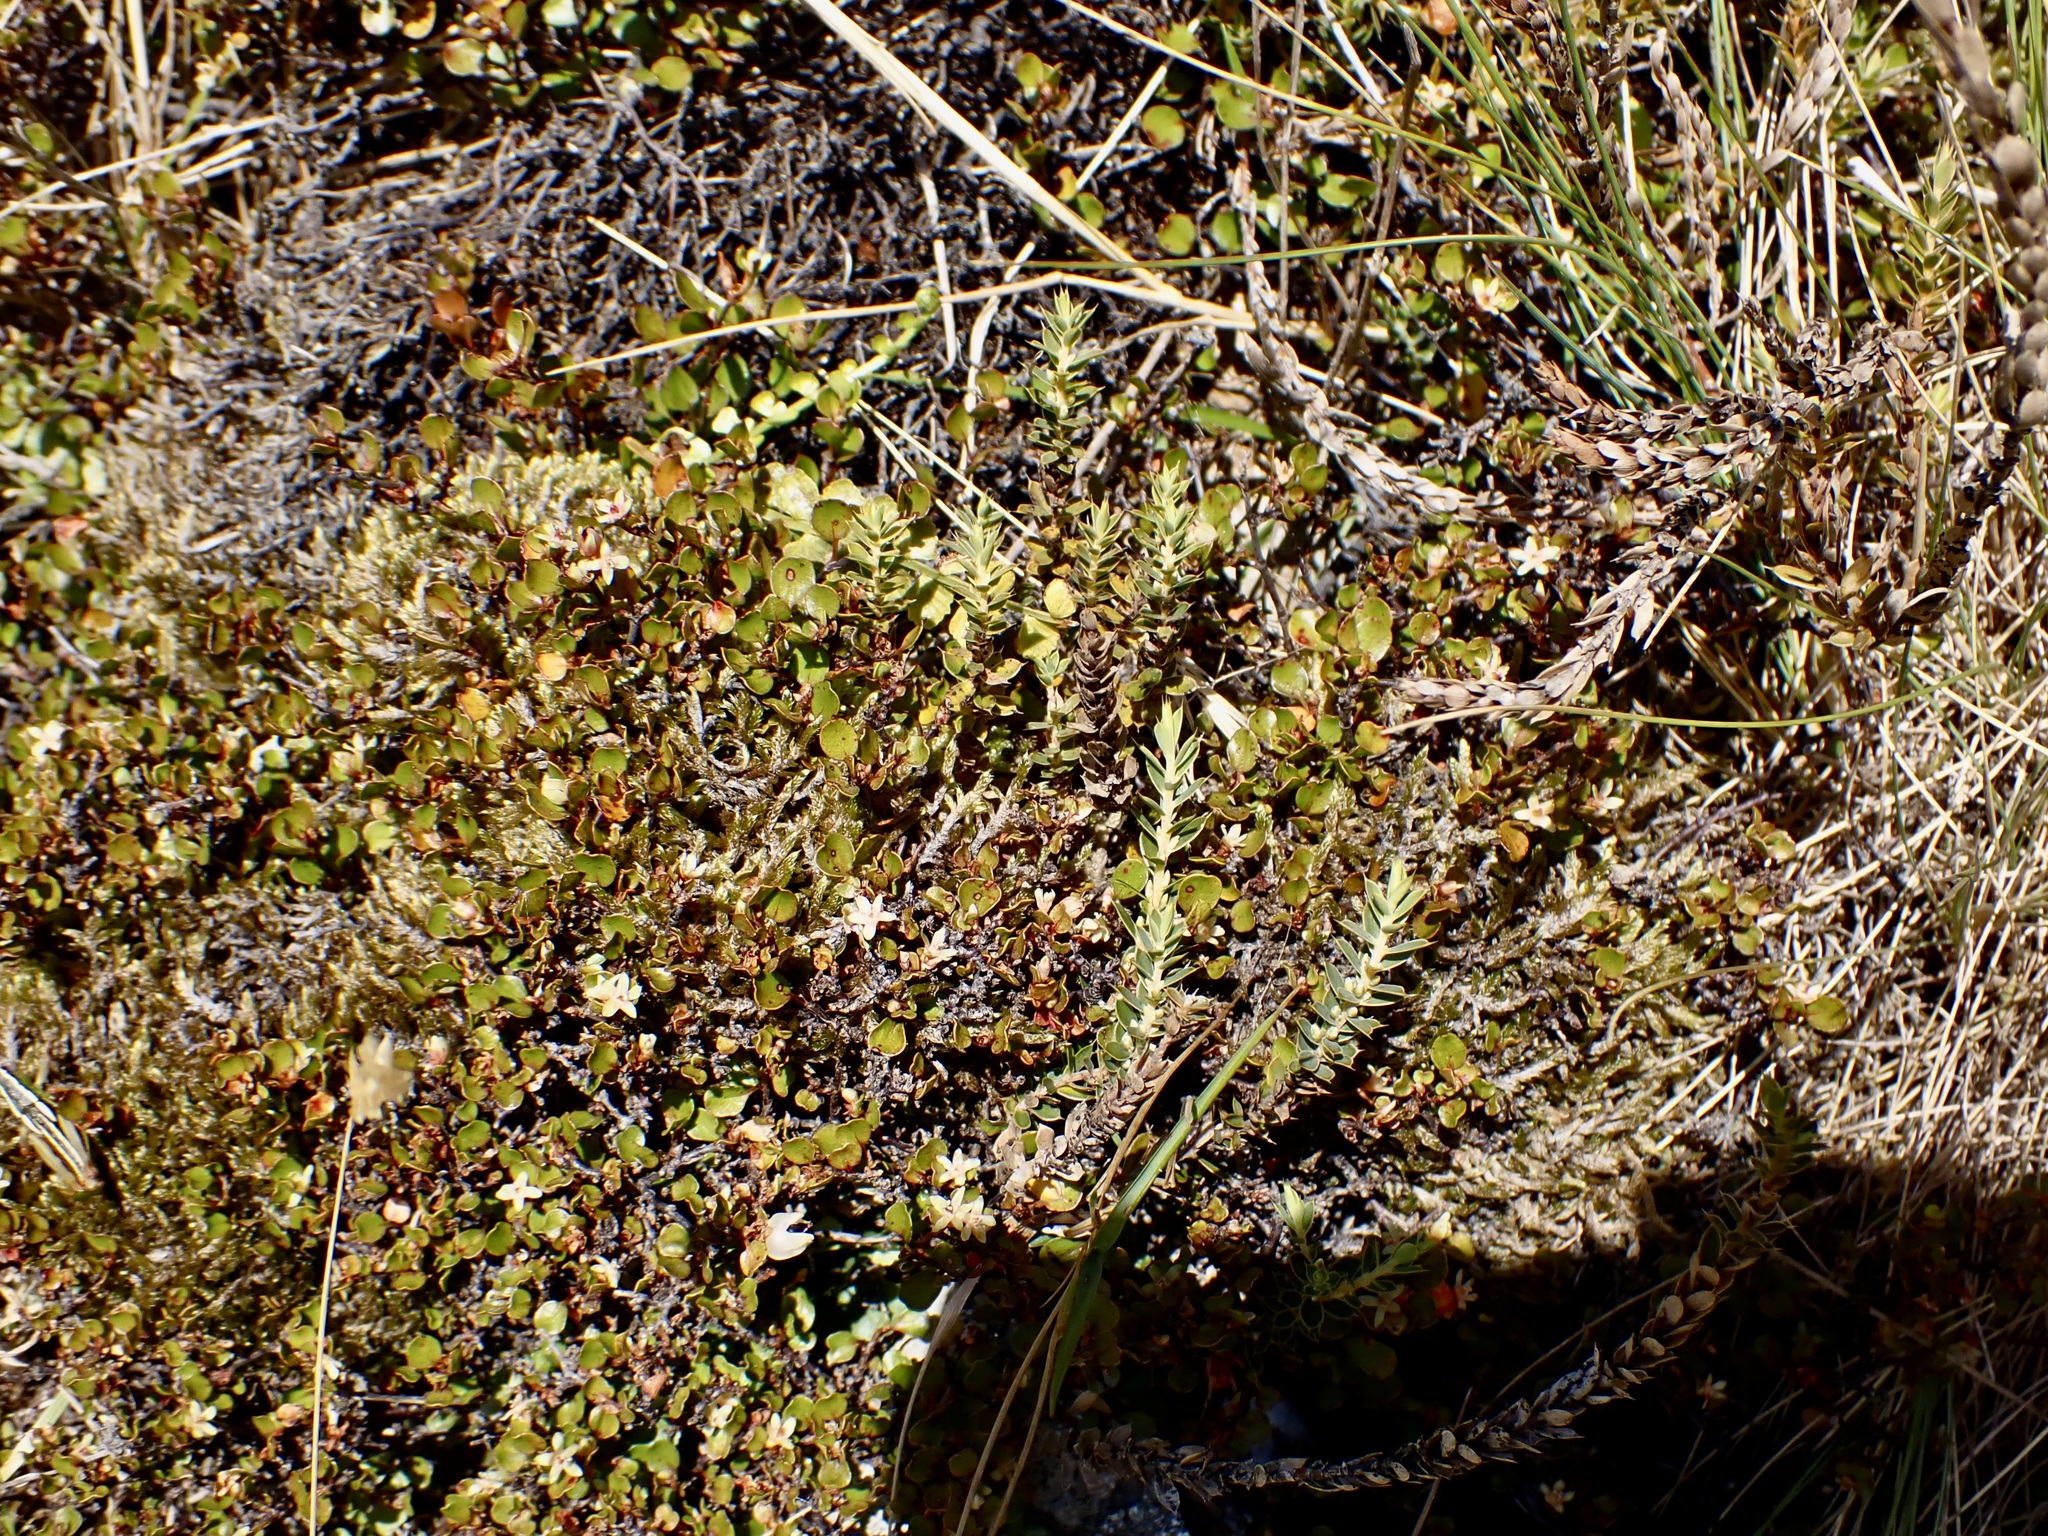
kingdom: Plantae
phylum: Tracheophyta
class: Magnoliopsida
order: Caryophyllales
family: Polygonaceae
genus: Muehlenbeckia
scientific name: Muehlenbeckia axillaris
